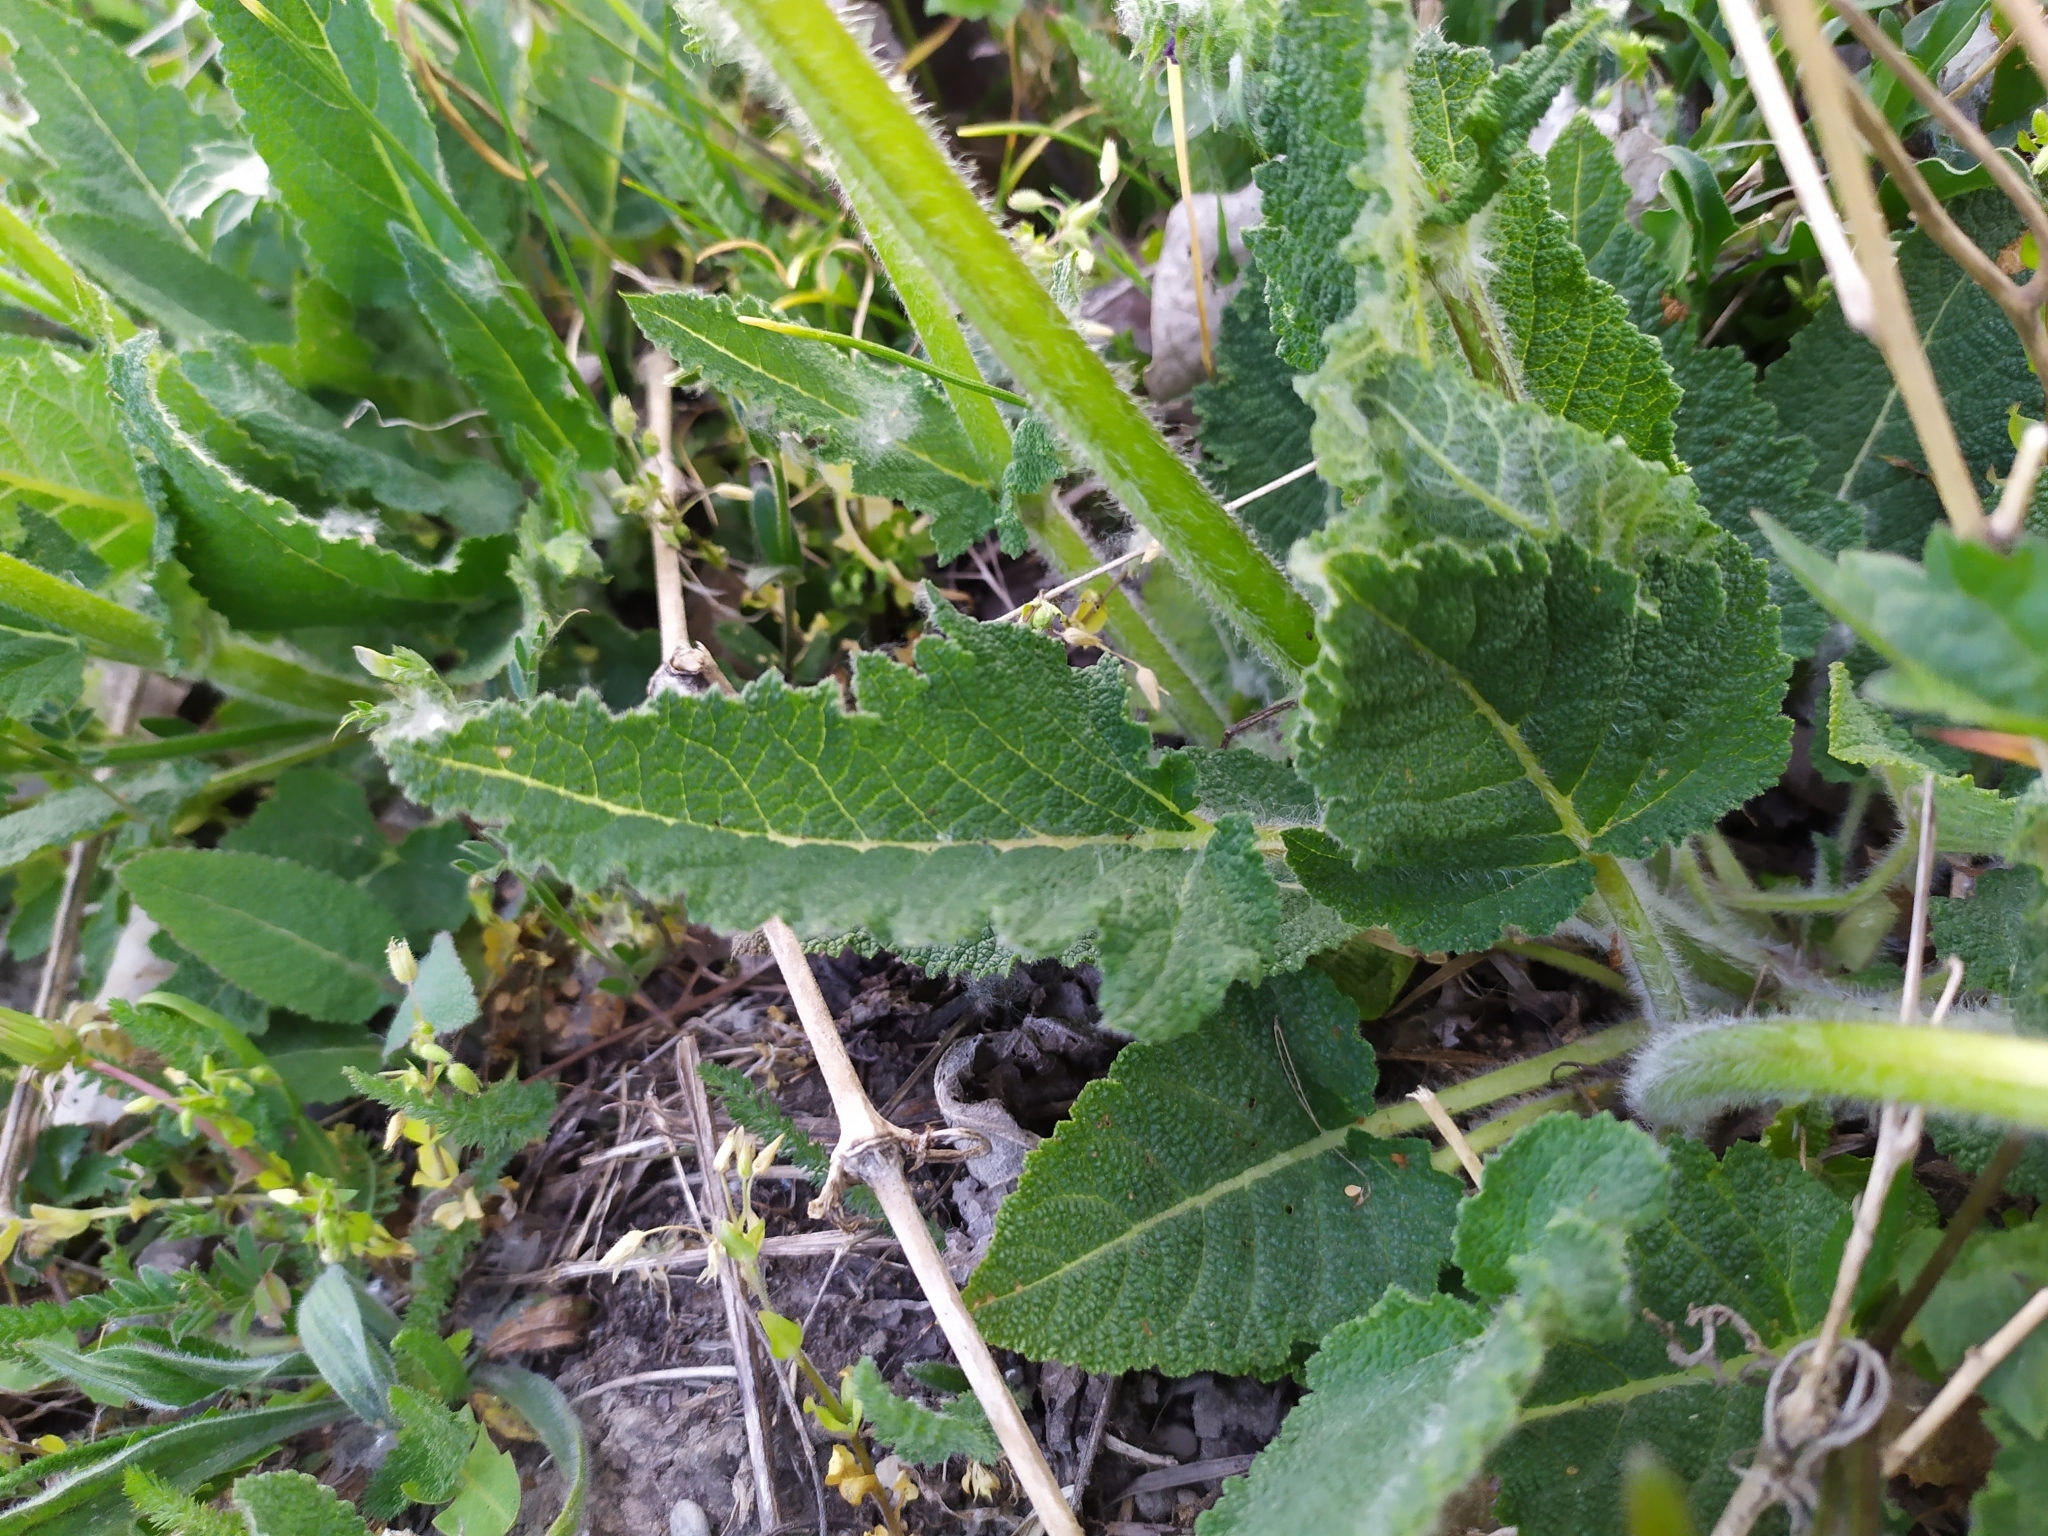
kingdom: Plantae
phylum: Tracheophyta
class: Magnoliopsida
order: Lamiales
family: Lamiaceae
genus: Salvia
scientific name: Salvia pratensis
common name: Meadow sage
